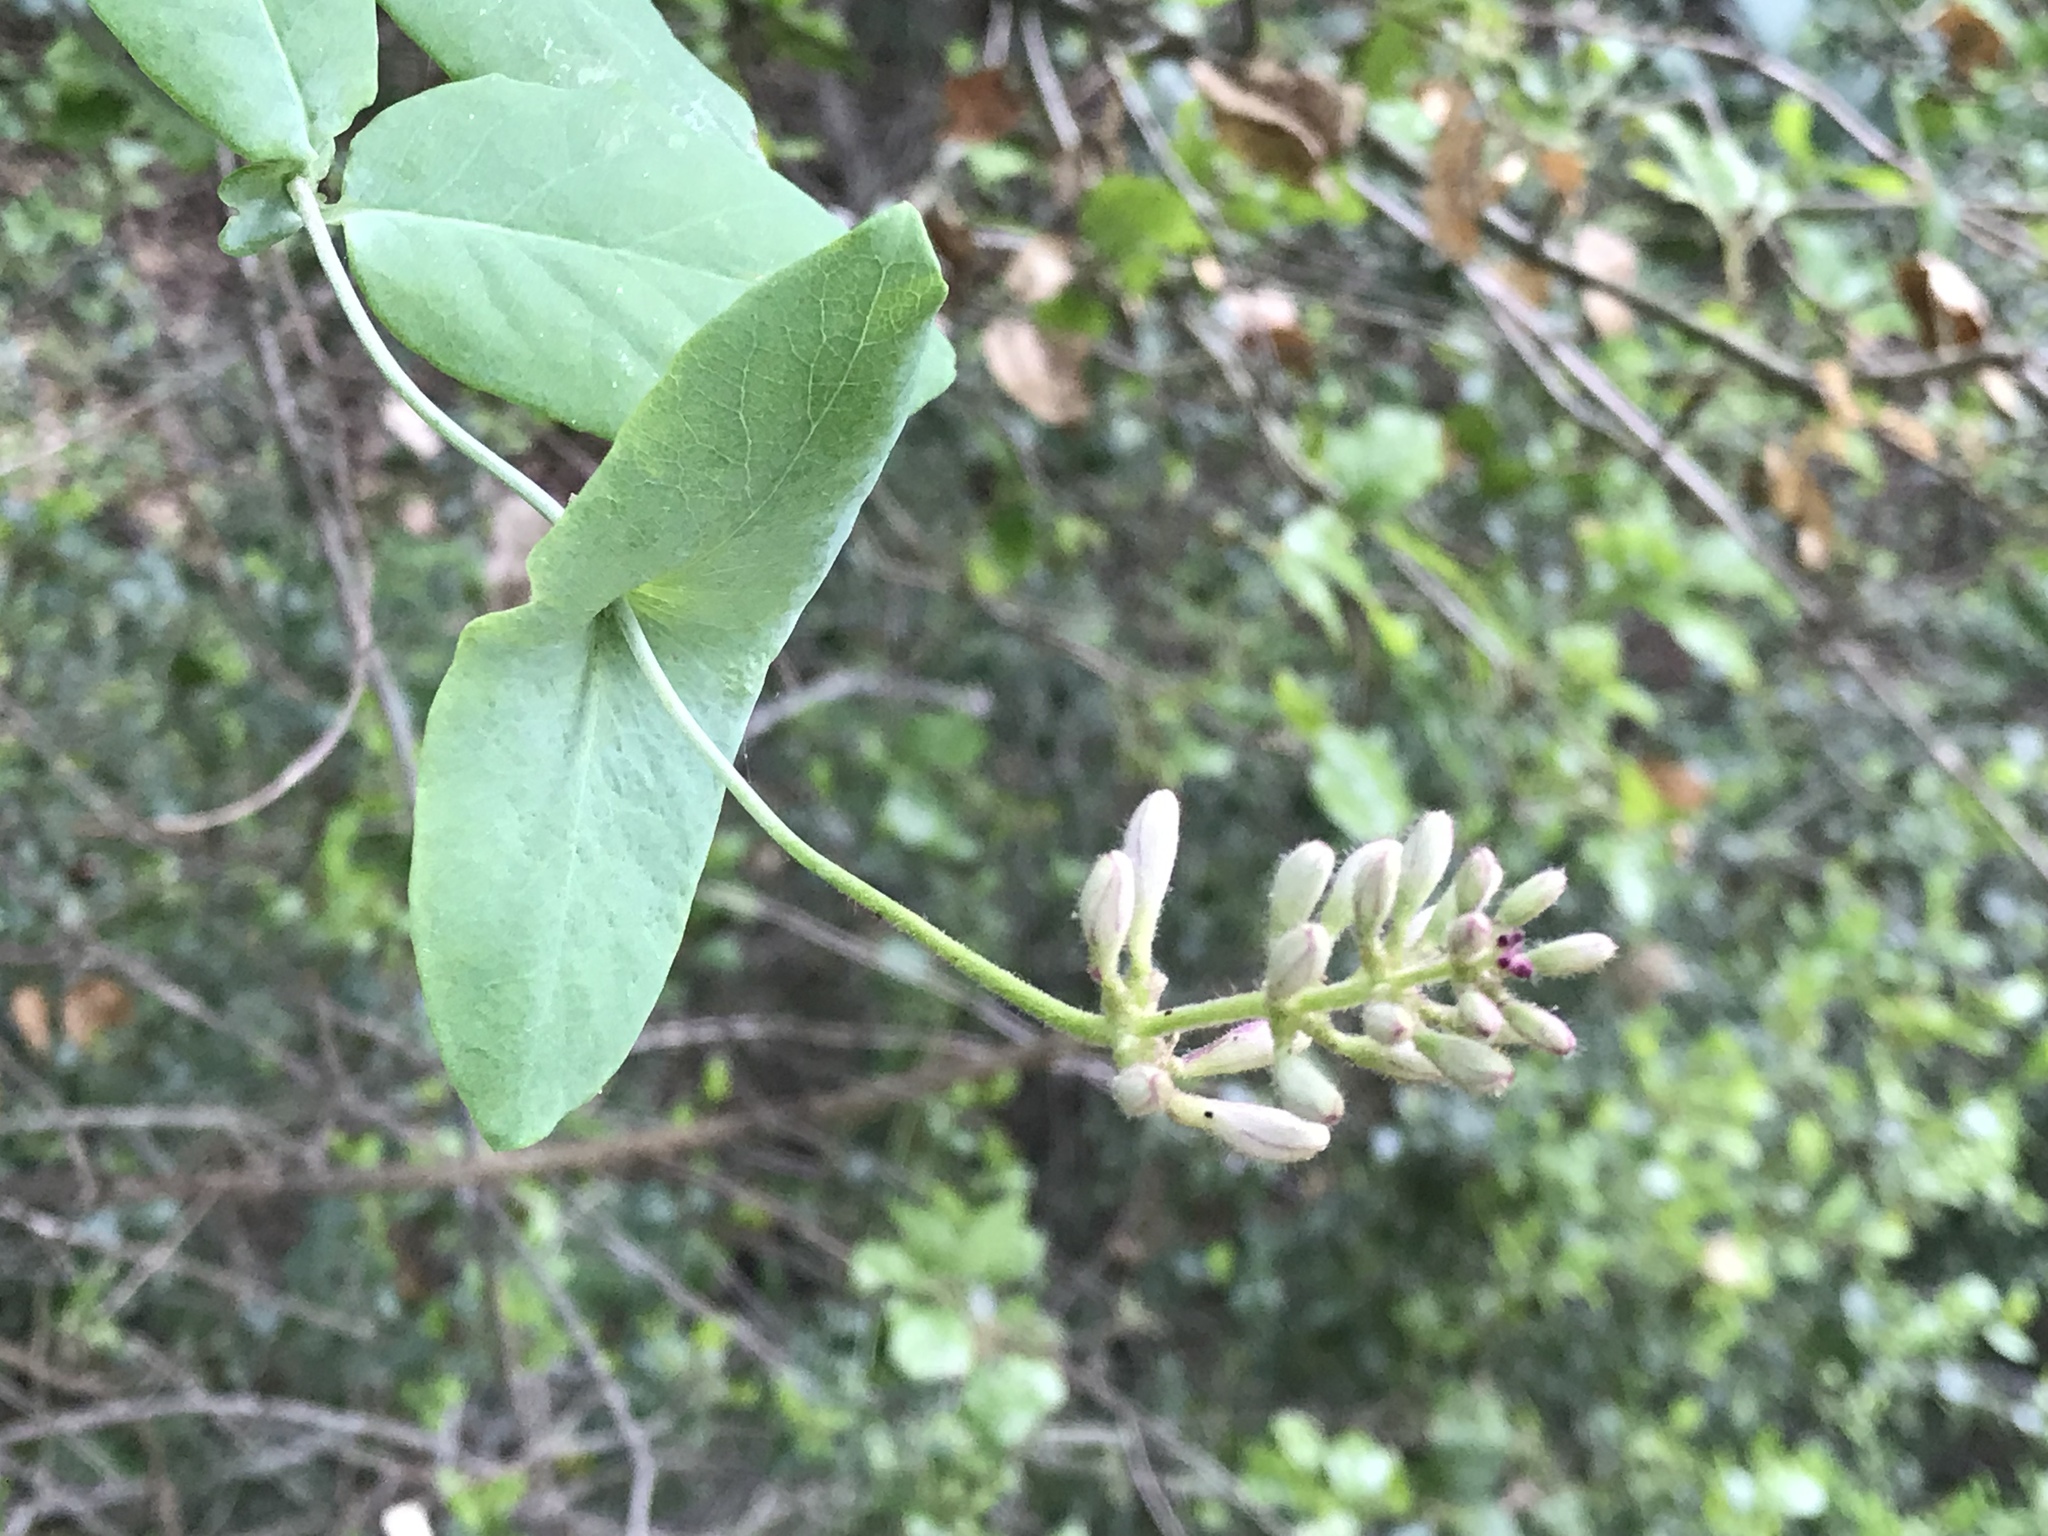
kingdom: Plantae
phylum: Tracheophyta
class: Magnoliopsida
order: Dipsacales
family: Caprifoliaceae
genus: Lonicera
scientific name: Lonicera hispidula
